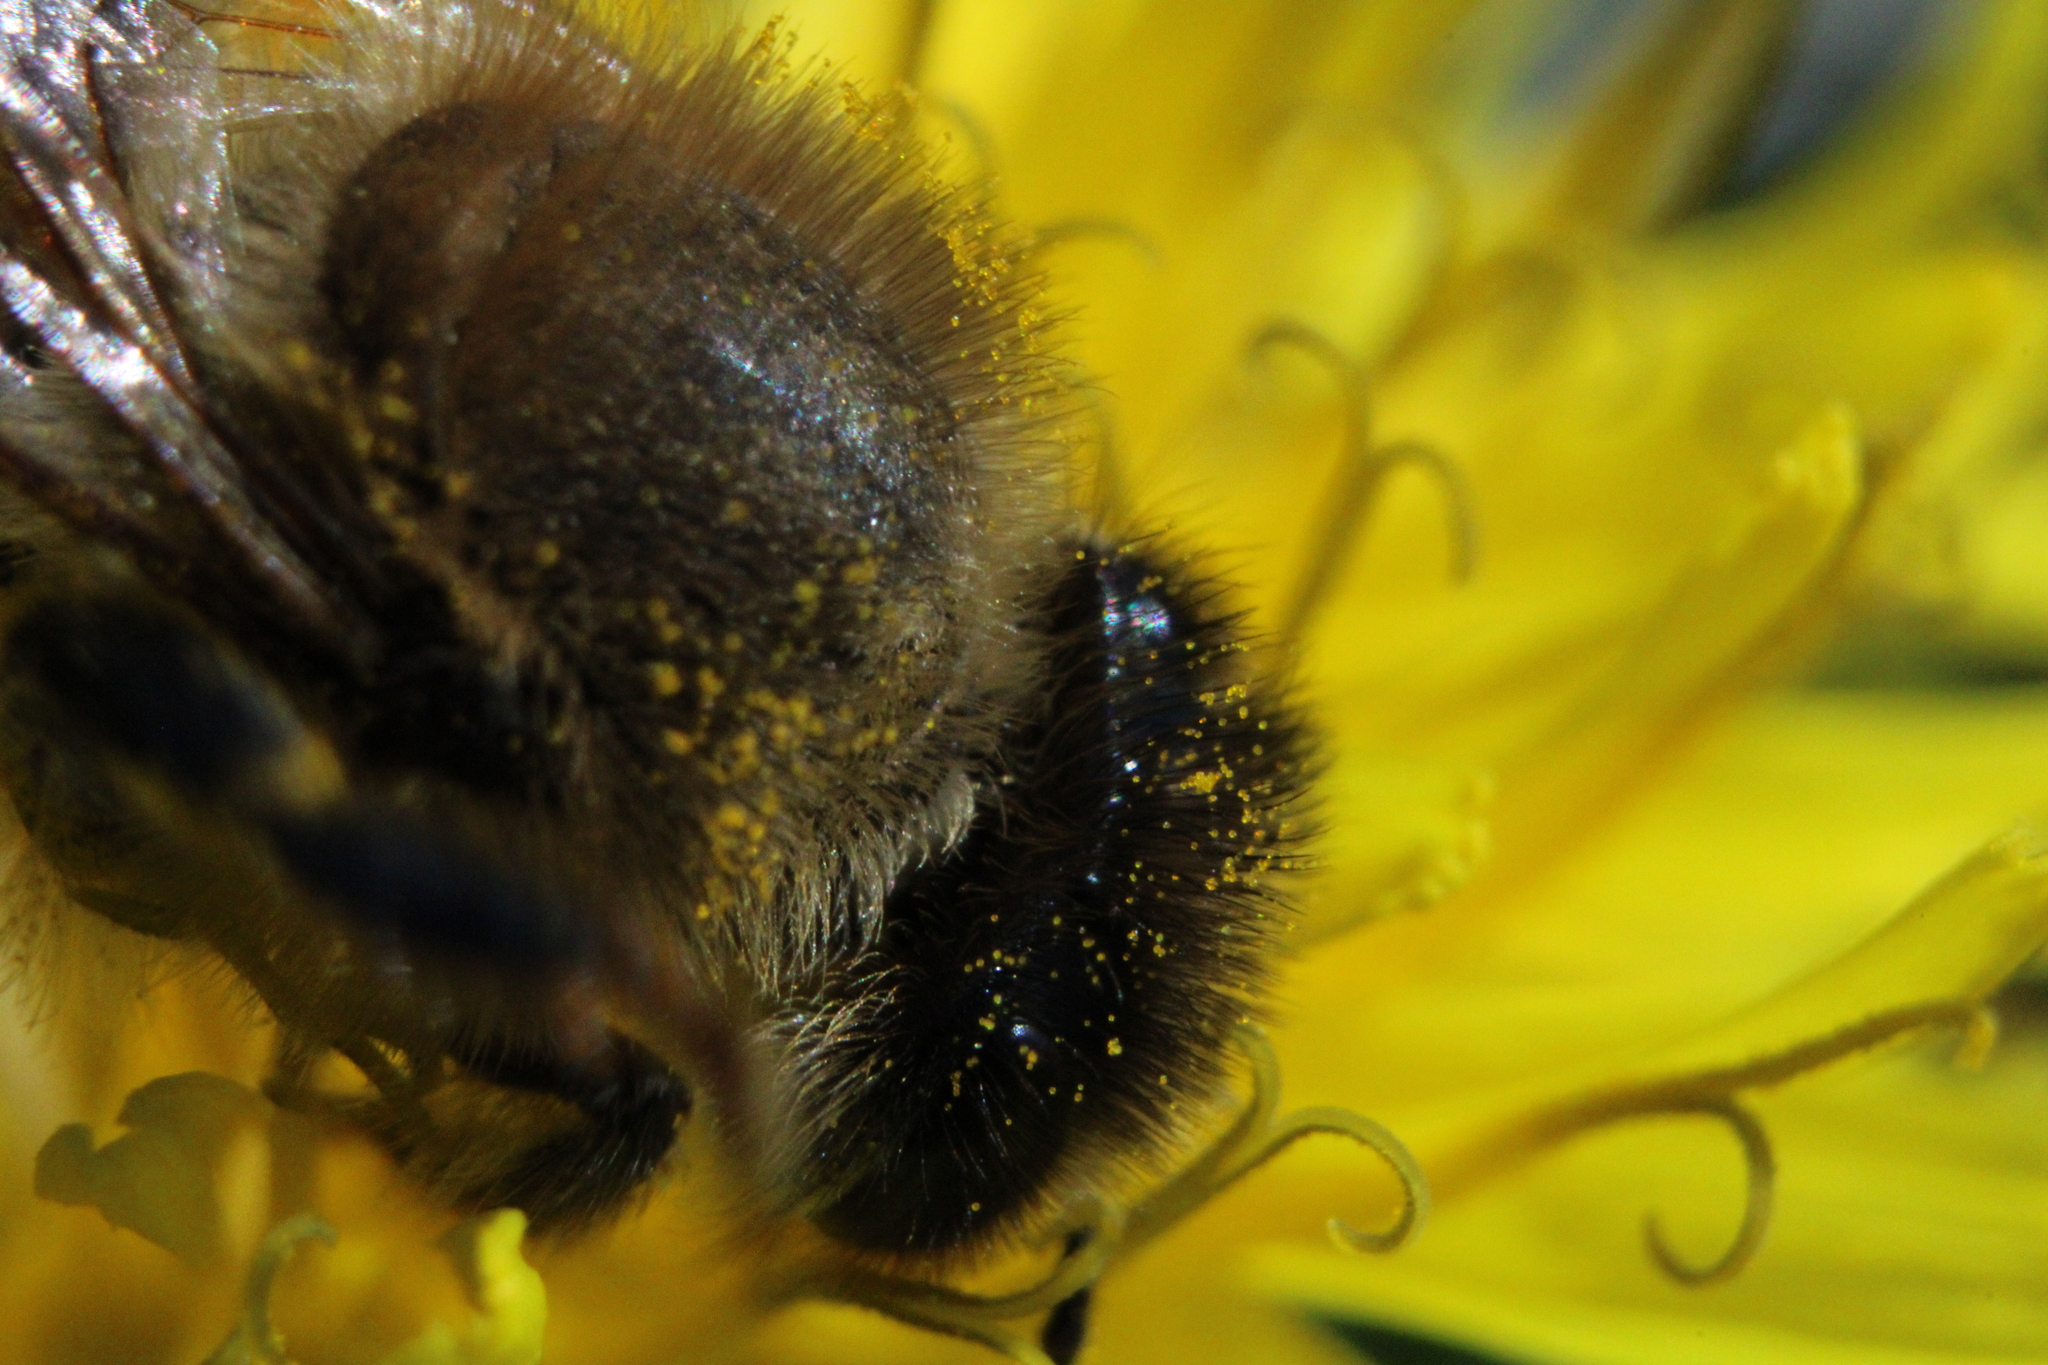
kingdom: Animalia
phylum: Arthropoda
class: Insecta
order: Hymenoptera
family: Apidae
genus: Apis
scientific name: Apis mellifera
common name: Honey bee
